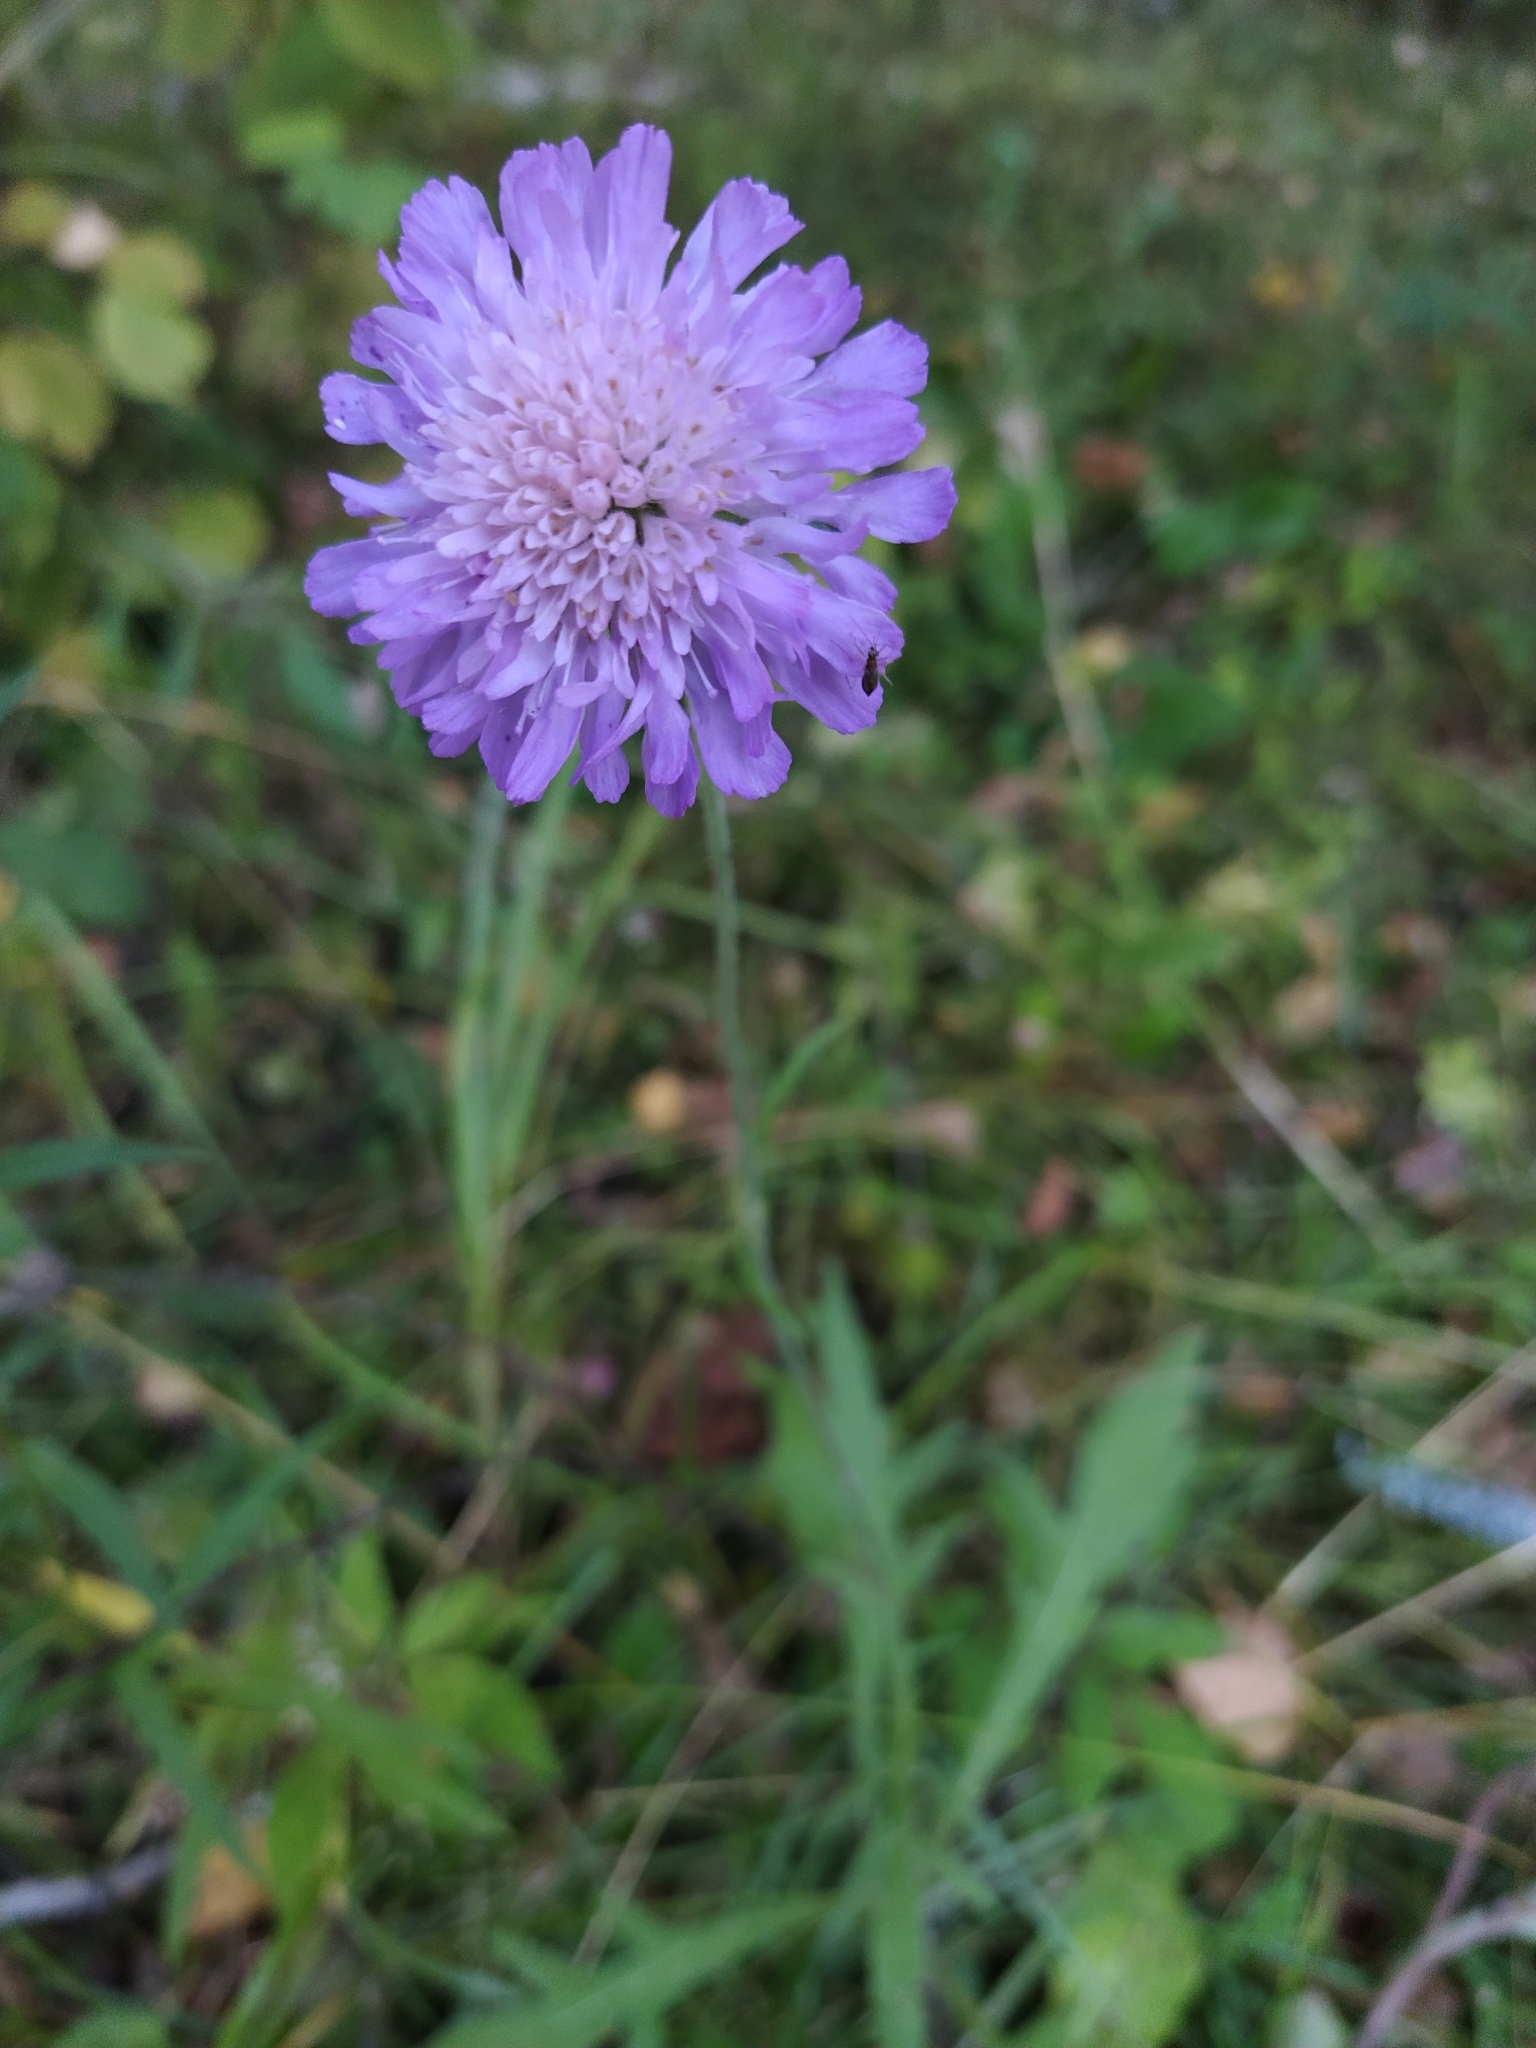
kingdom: Plantae
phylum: Tracheophyta
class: Magnoliopsida
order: Dipsacales
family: Caprifoliaceae
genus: Knautia
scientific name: Knautia arvensis
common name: Field scabiosa
